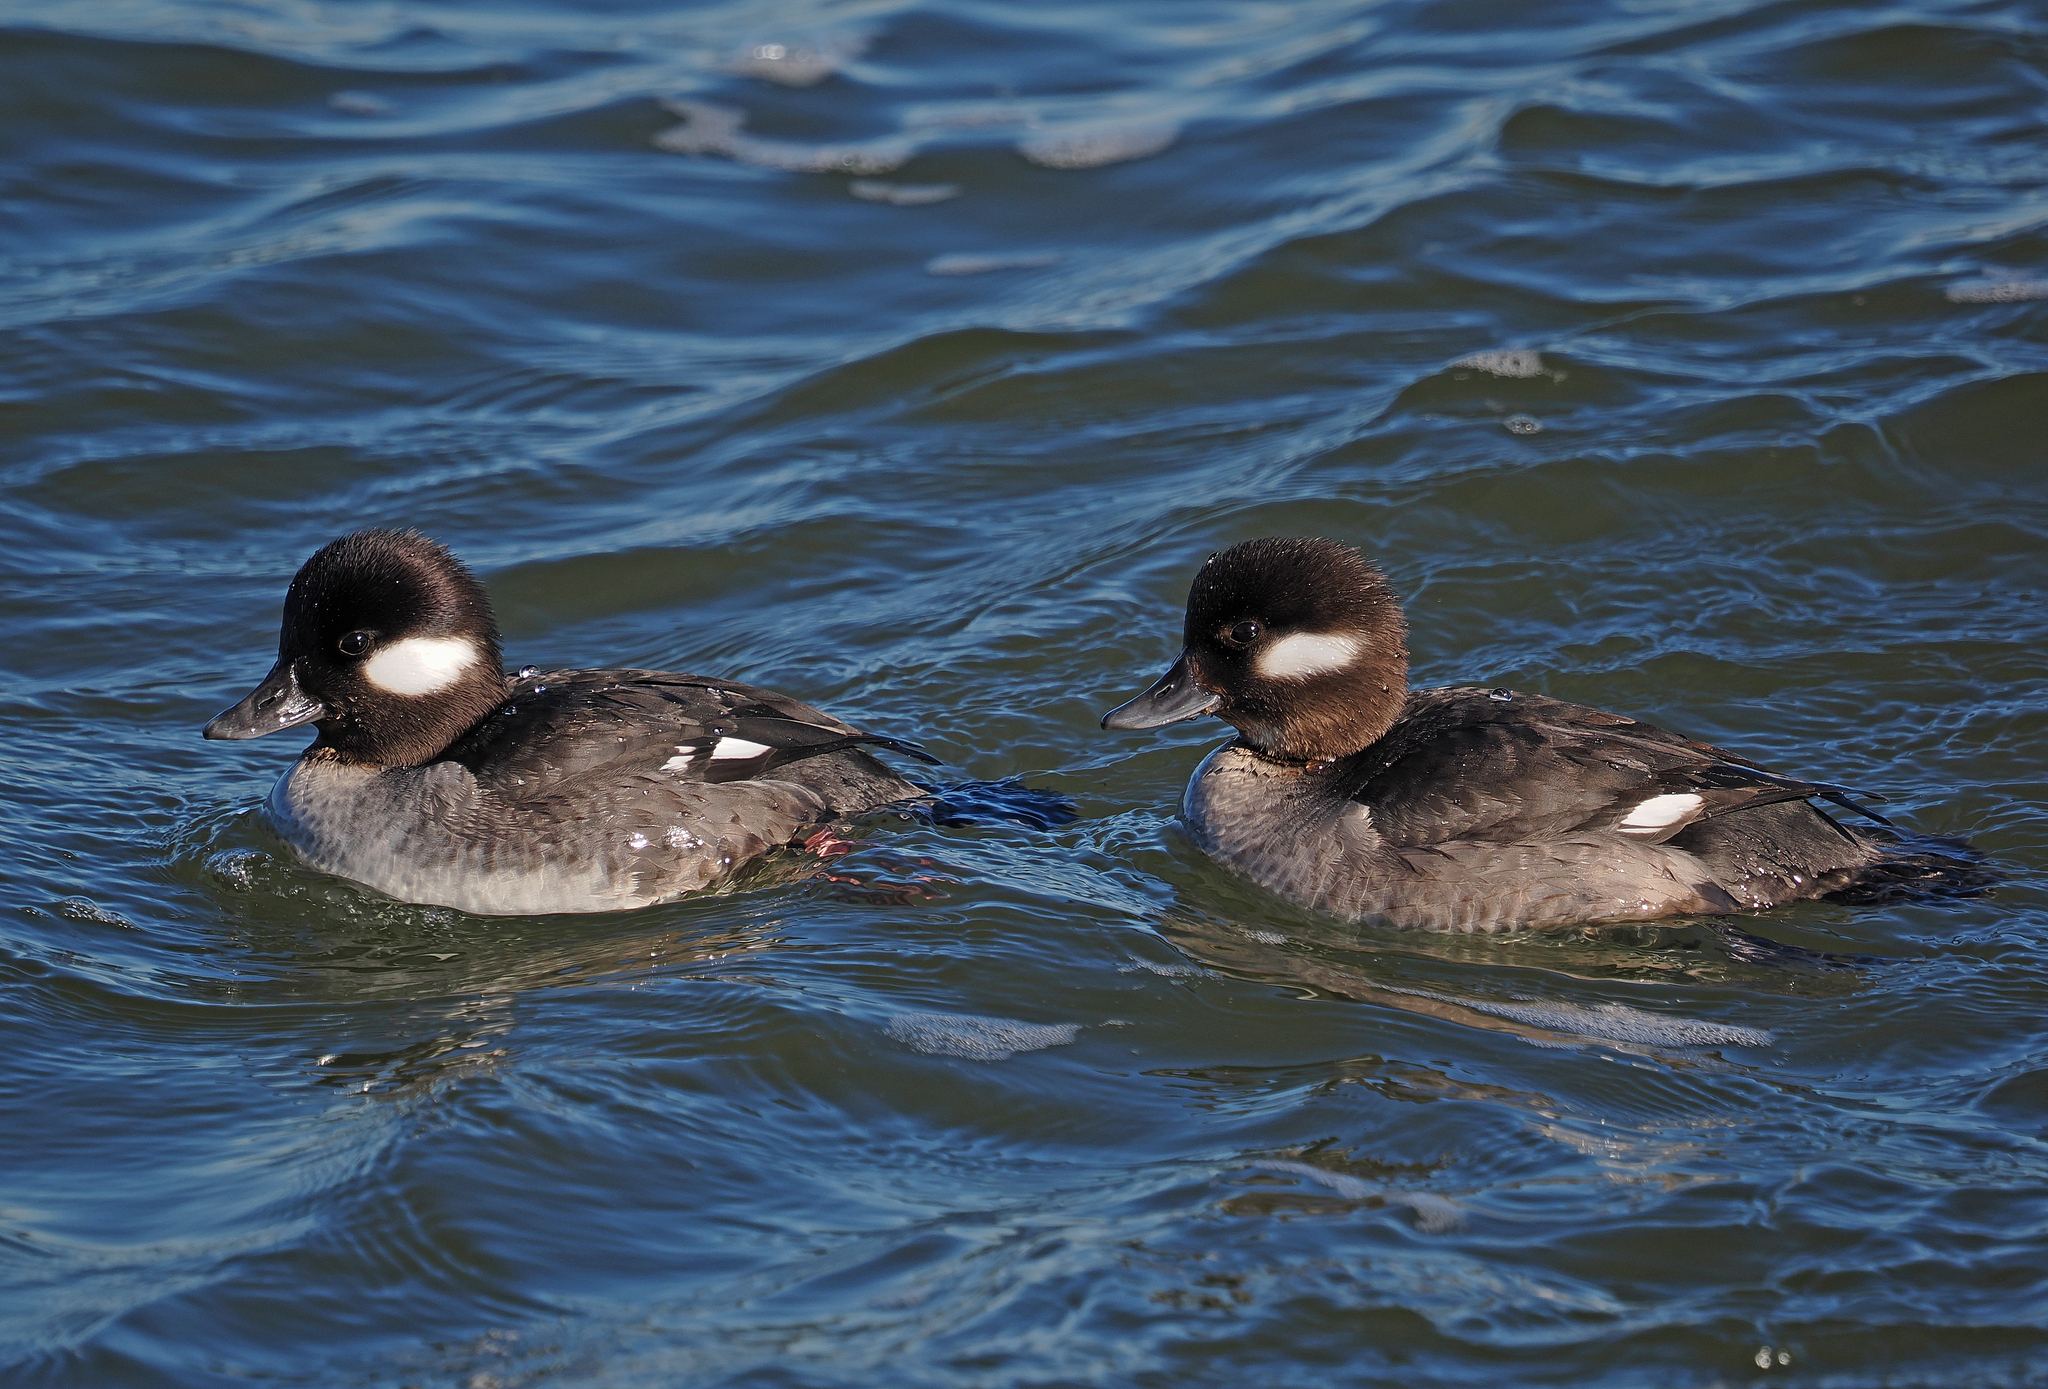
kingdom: Animalia
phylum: Chordata
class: Aves
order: Anseriformes
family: Anatidae
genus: Bucephala
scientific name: Bucephala albeola
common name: Bufflehead
